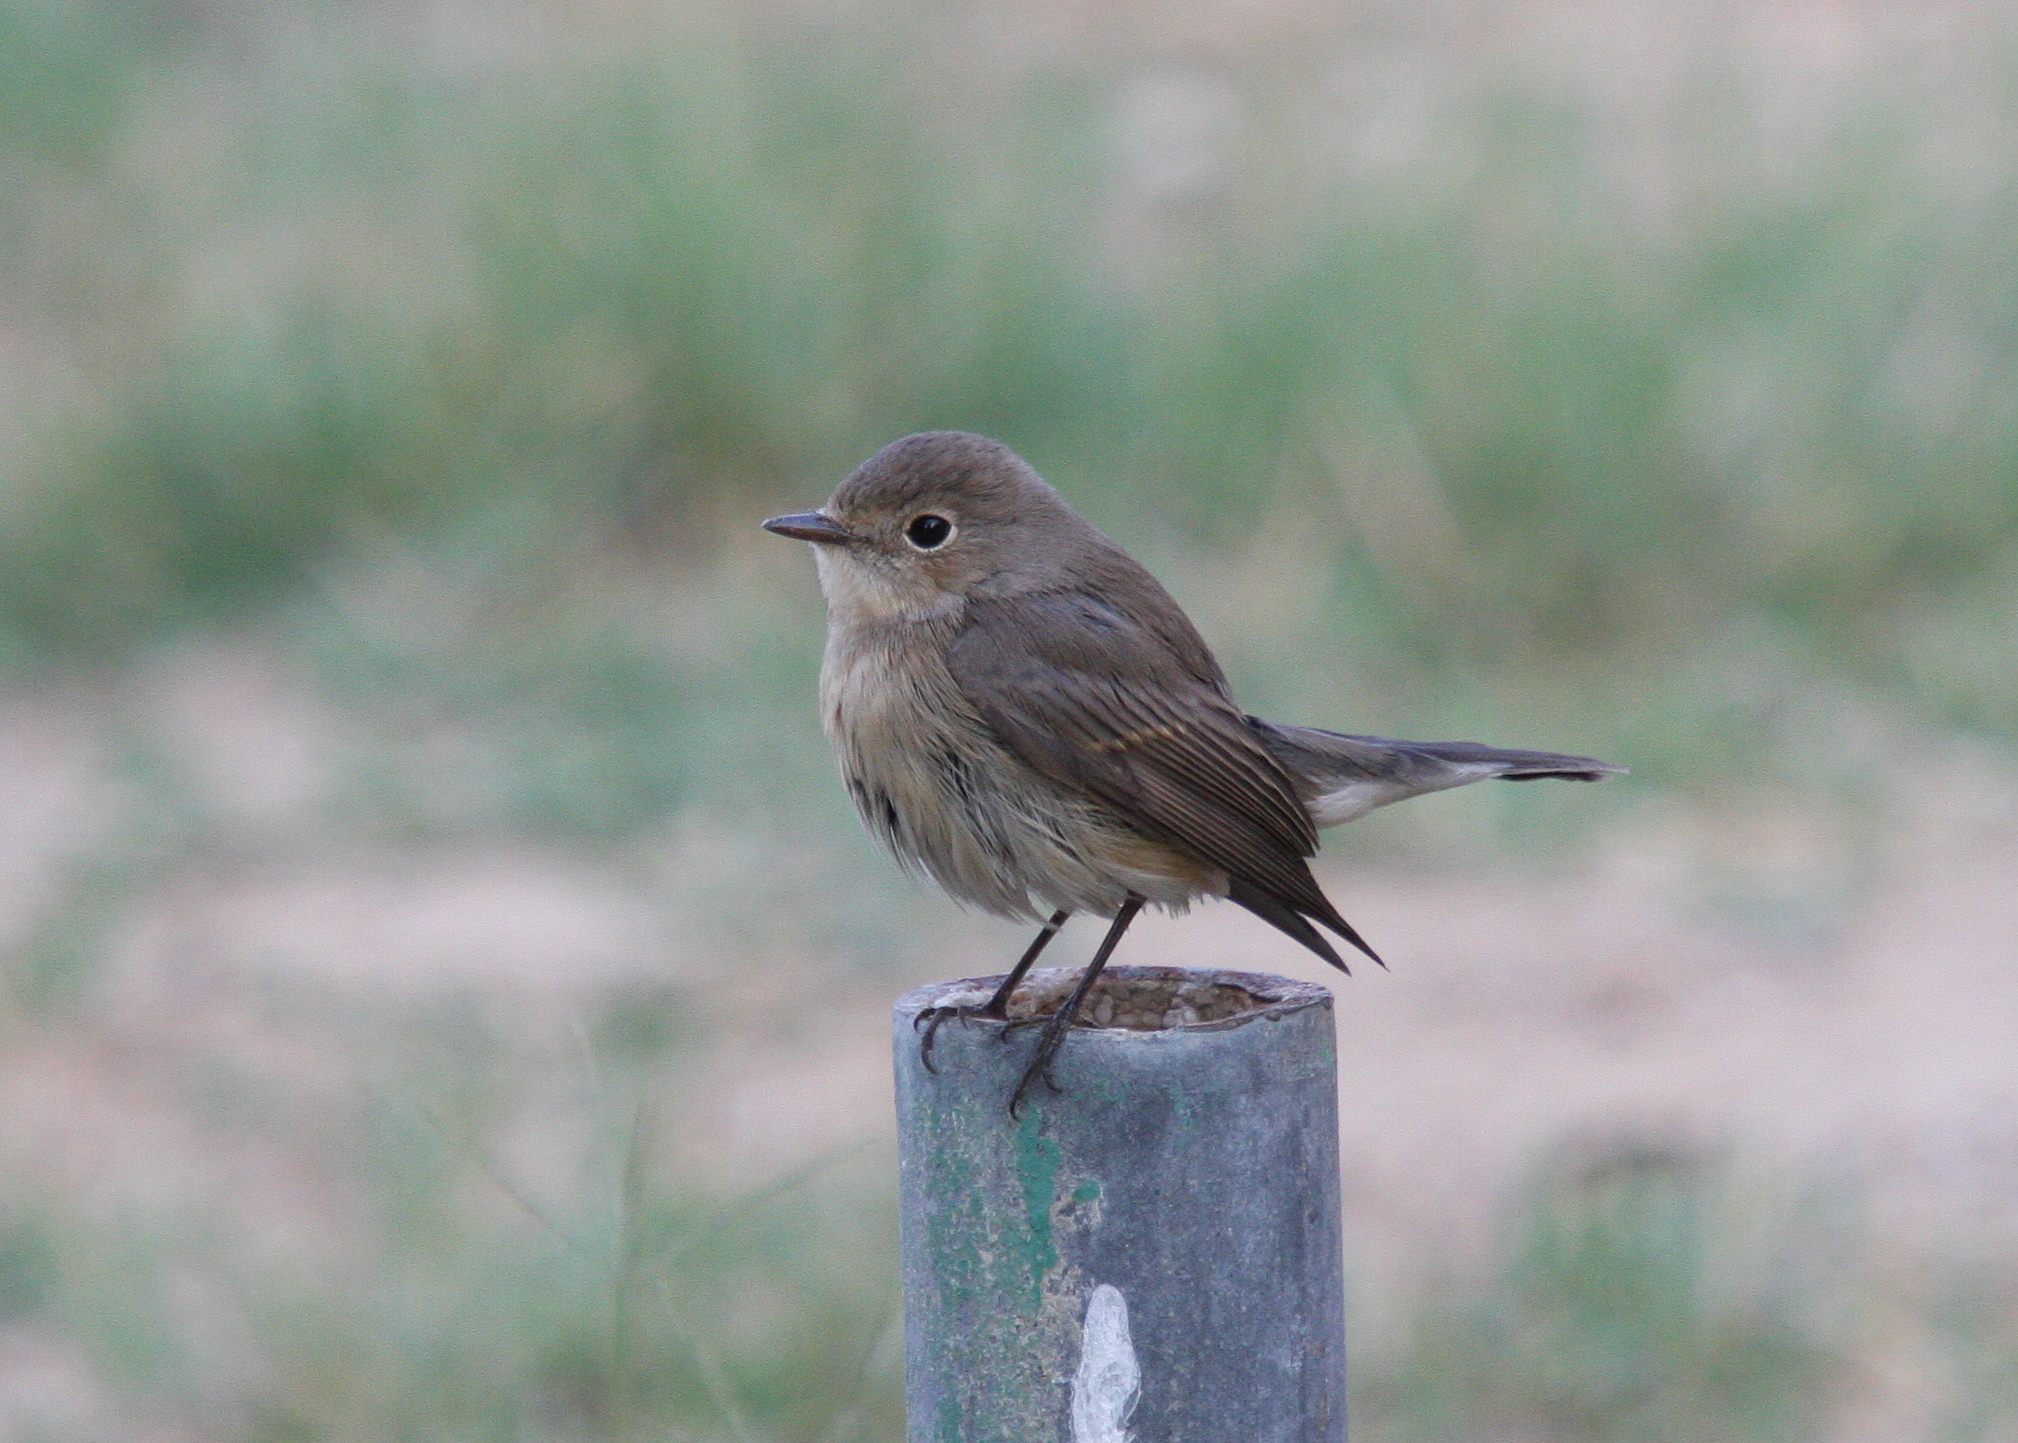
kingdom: Animalia
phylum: Chordata
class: Aves
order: Passeriformes
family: Muscicapidae
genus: Ficedula
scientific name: Ficedula parva
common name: Red-breasted flycatcher
